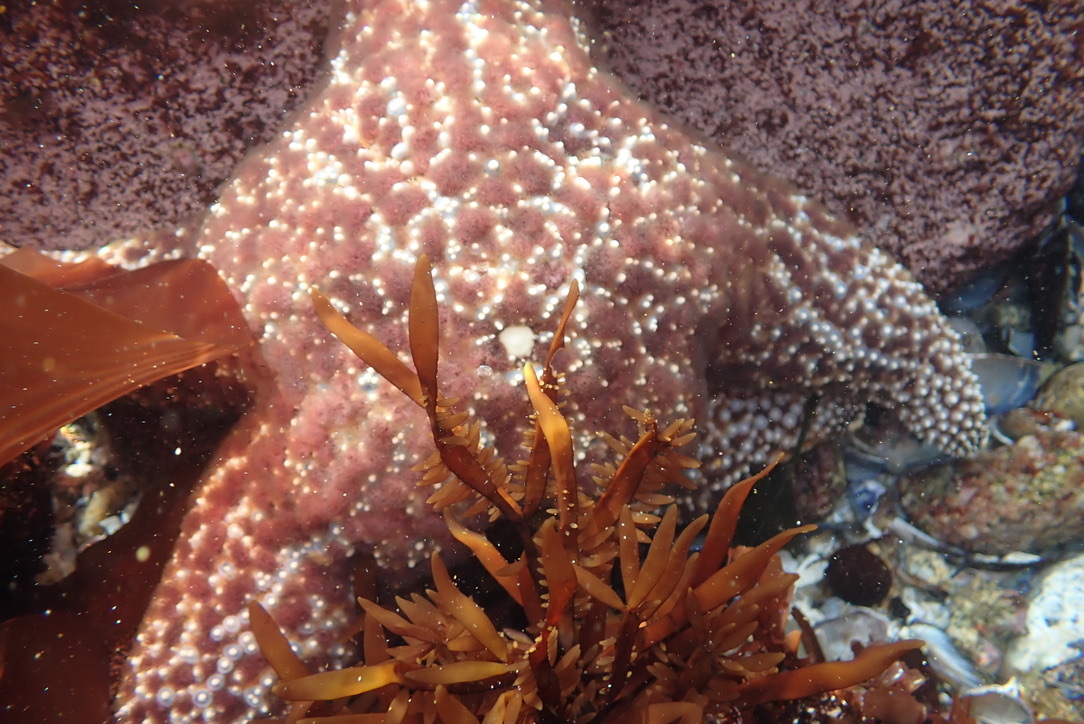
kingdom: Animalia
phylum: Echinodermata
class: Asteroidea
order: Forcipulatida
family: Asteriidae
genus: Pisaster
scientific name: Pisaster ochraceus
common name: Ochre stars
